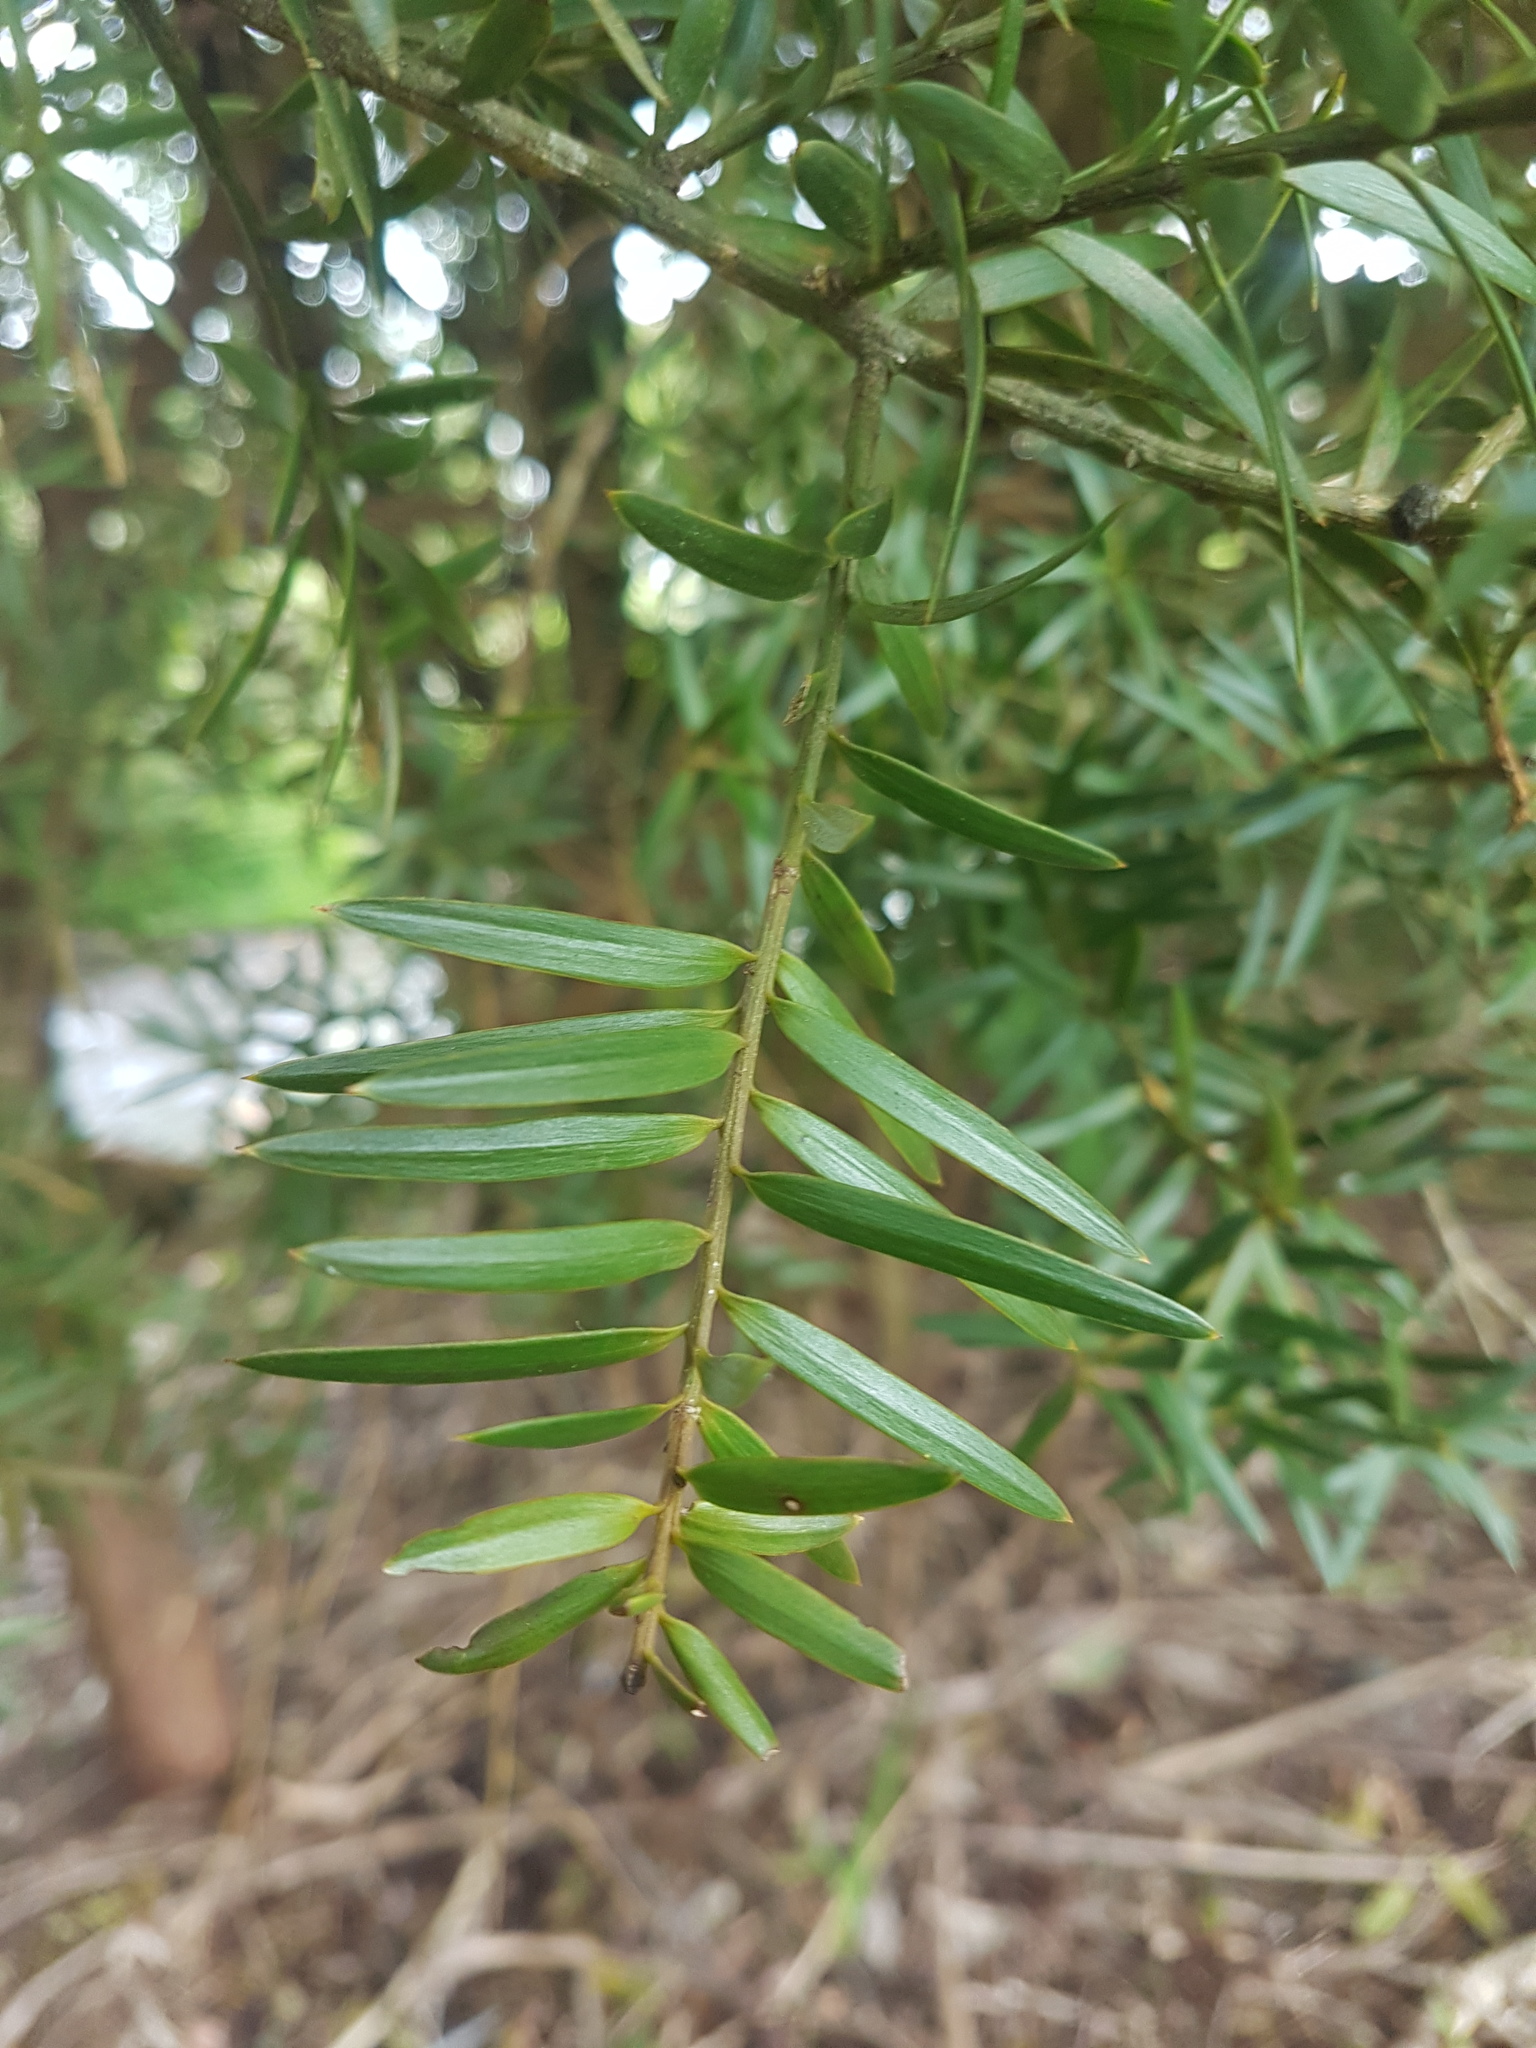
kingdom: Plantae
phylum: Tracheophyta
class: Pinopsida
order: Pinales
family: Podocarpaceae
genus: Podocarpus
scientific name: Podocarpus totara
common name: Totara
